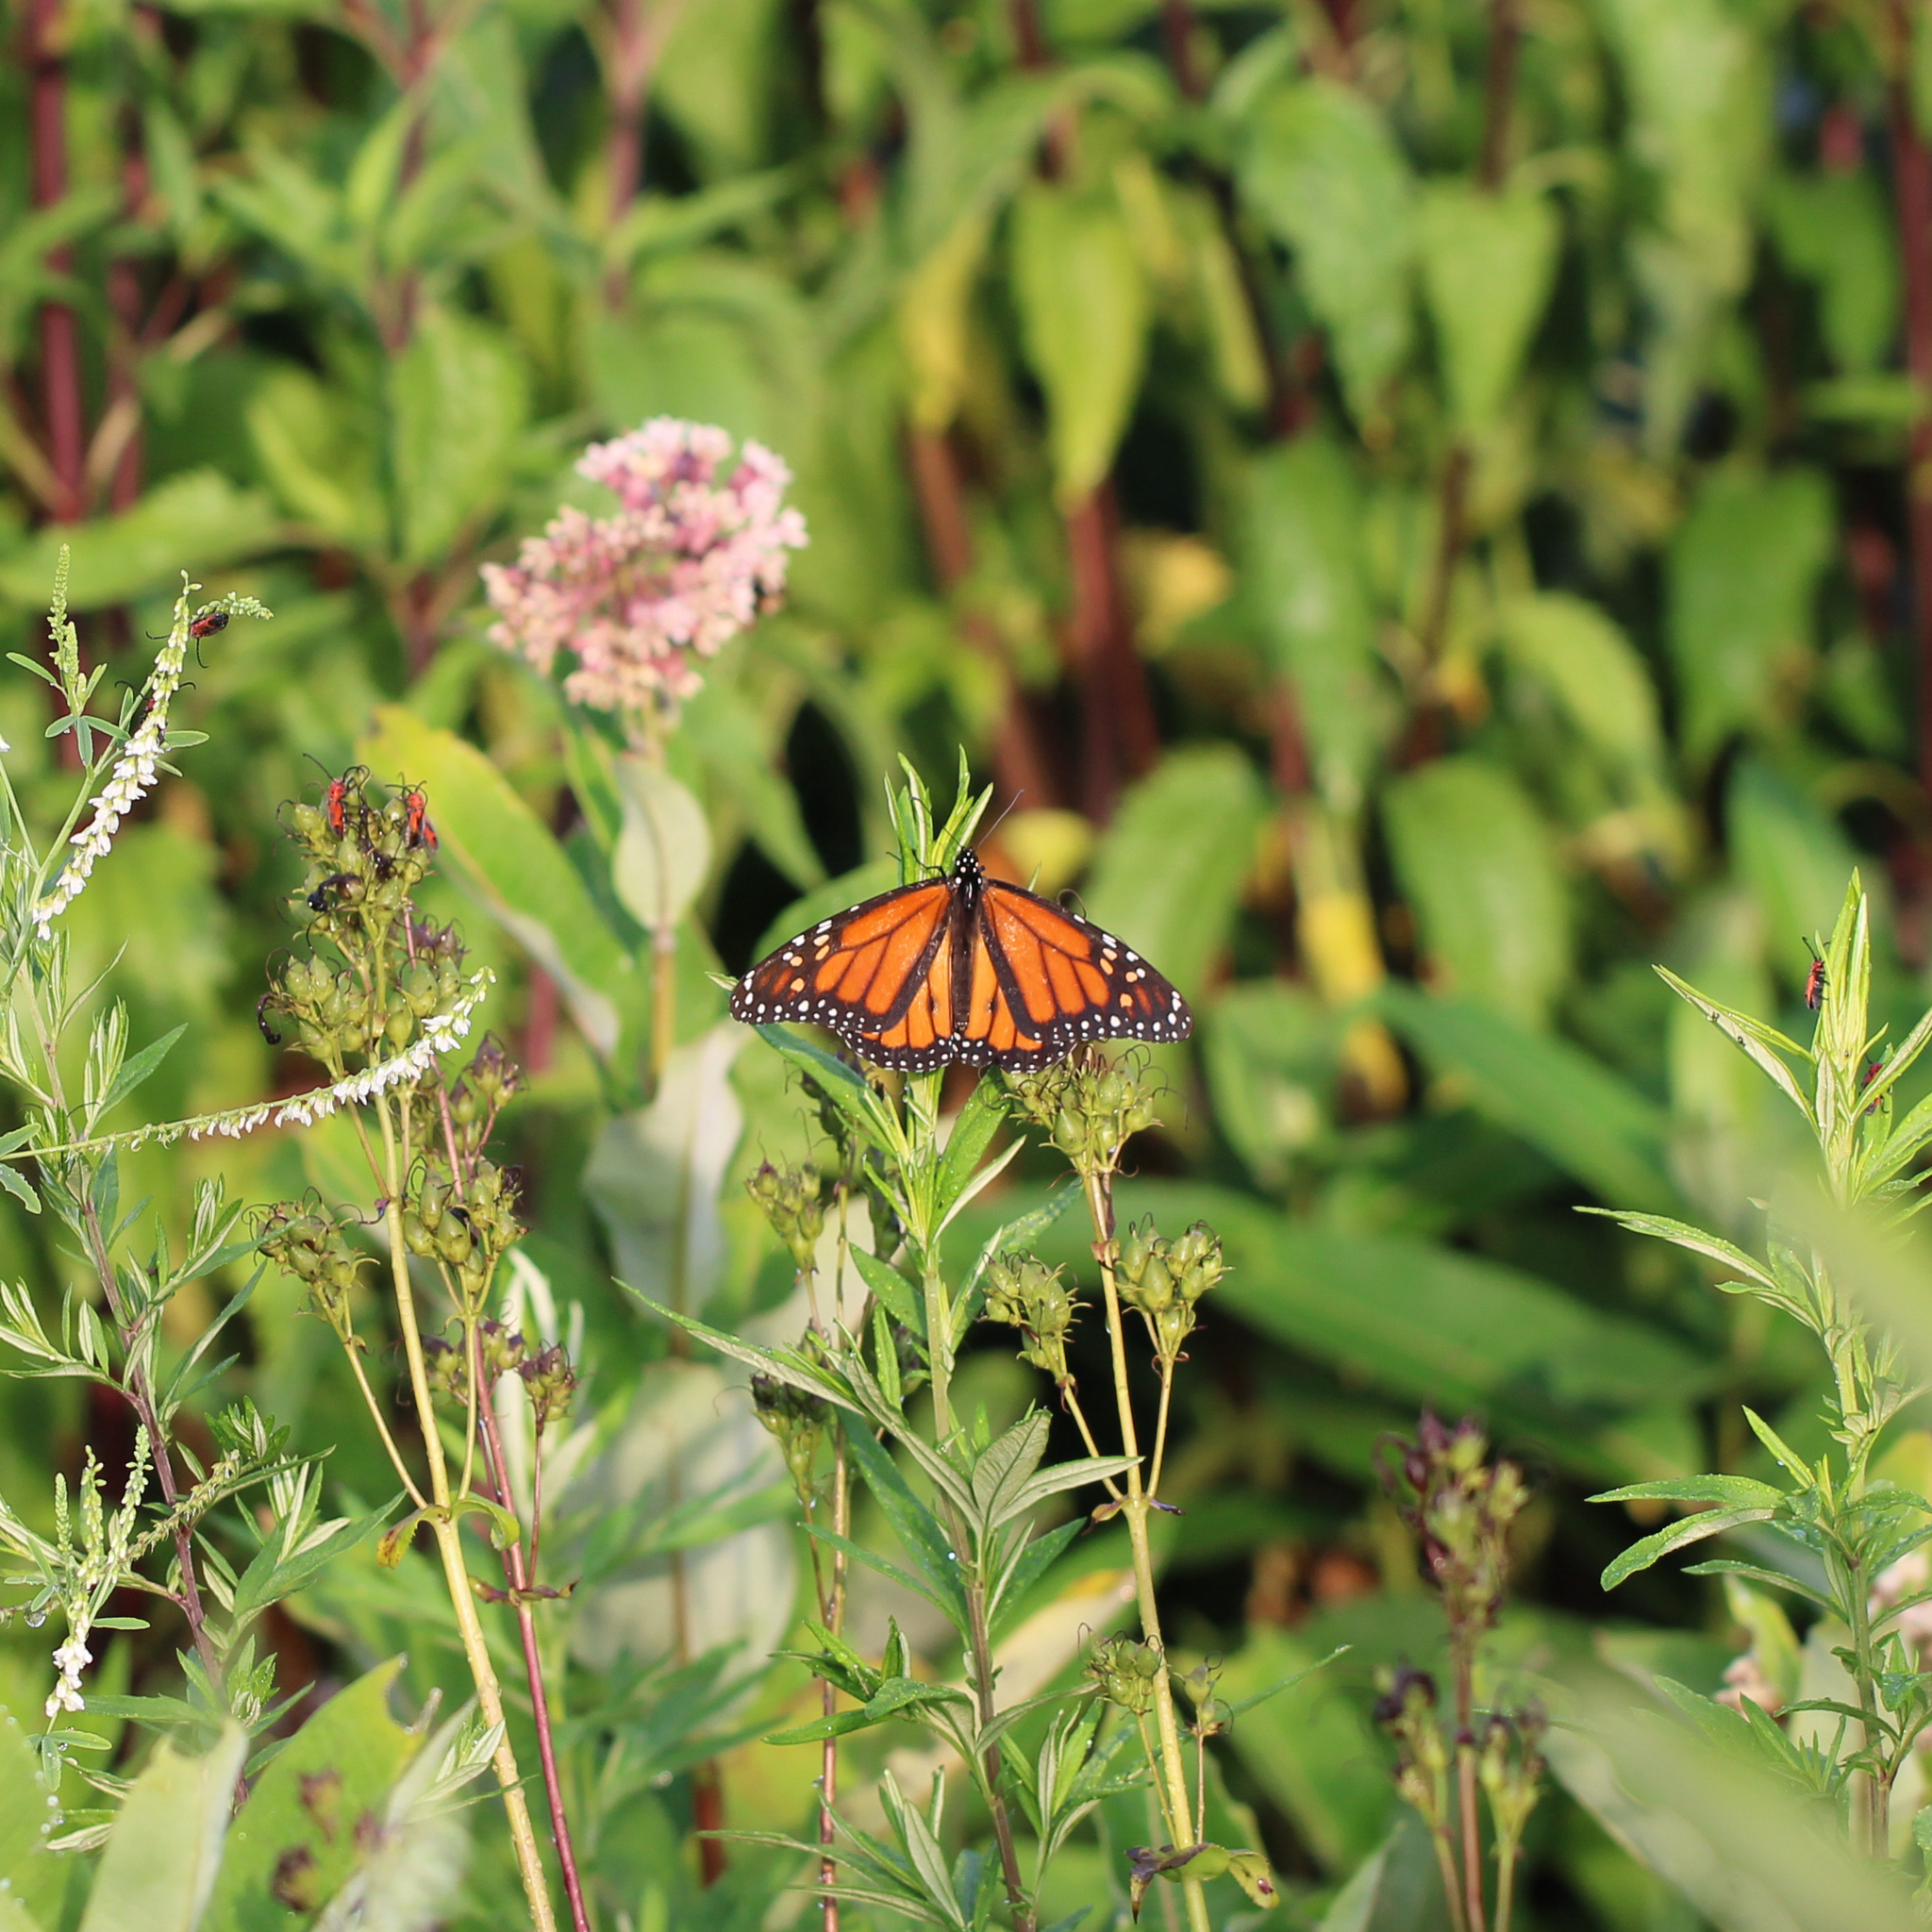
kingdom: Animalia
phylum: Arthropoda
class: Insecta
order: Lepidoptera
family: Nymphalidae
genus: Danaus
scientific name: Danaus plexippus
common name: Monarch
